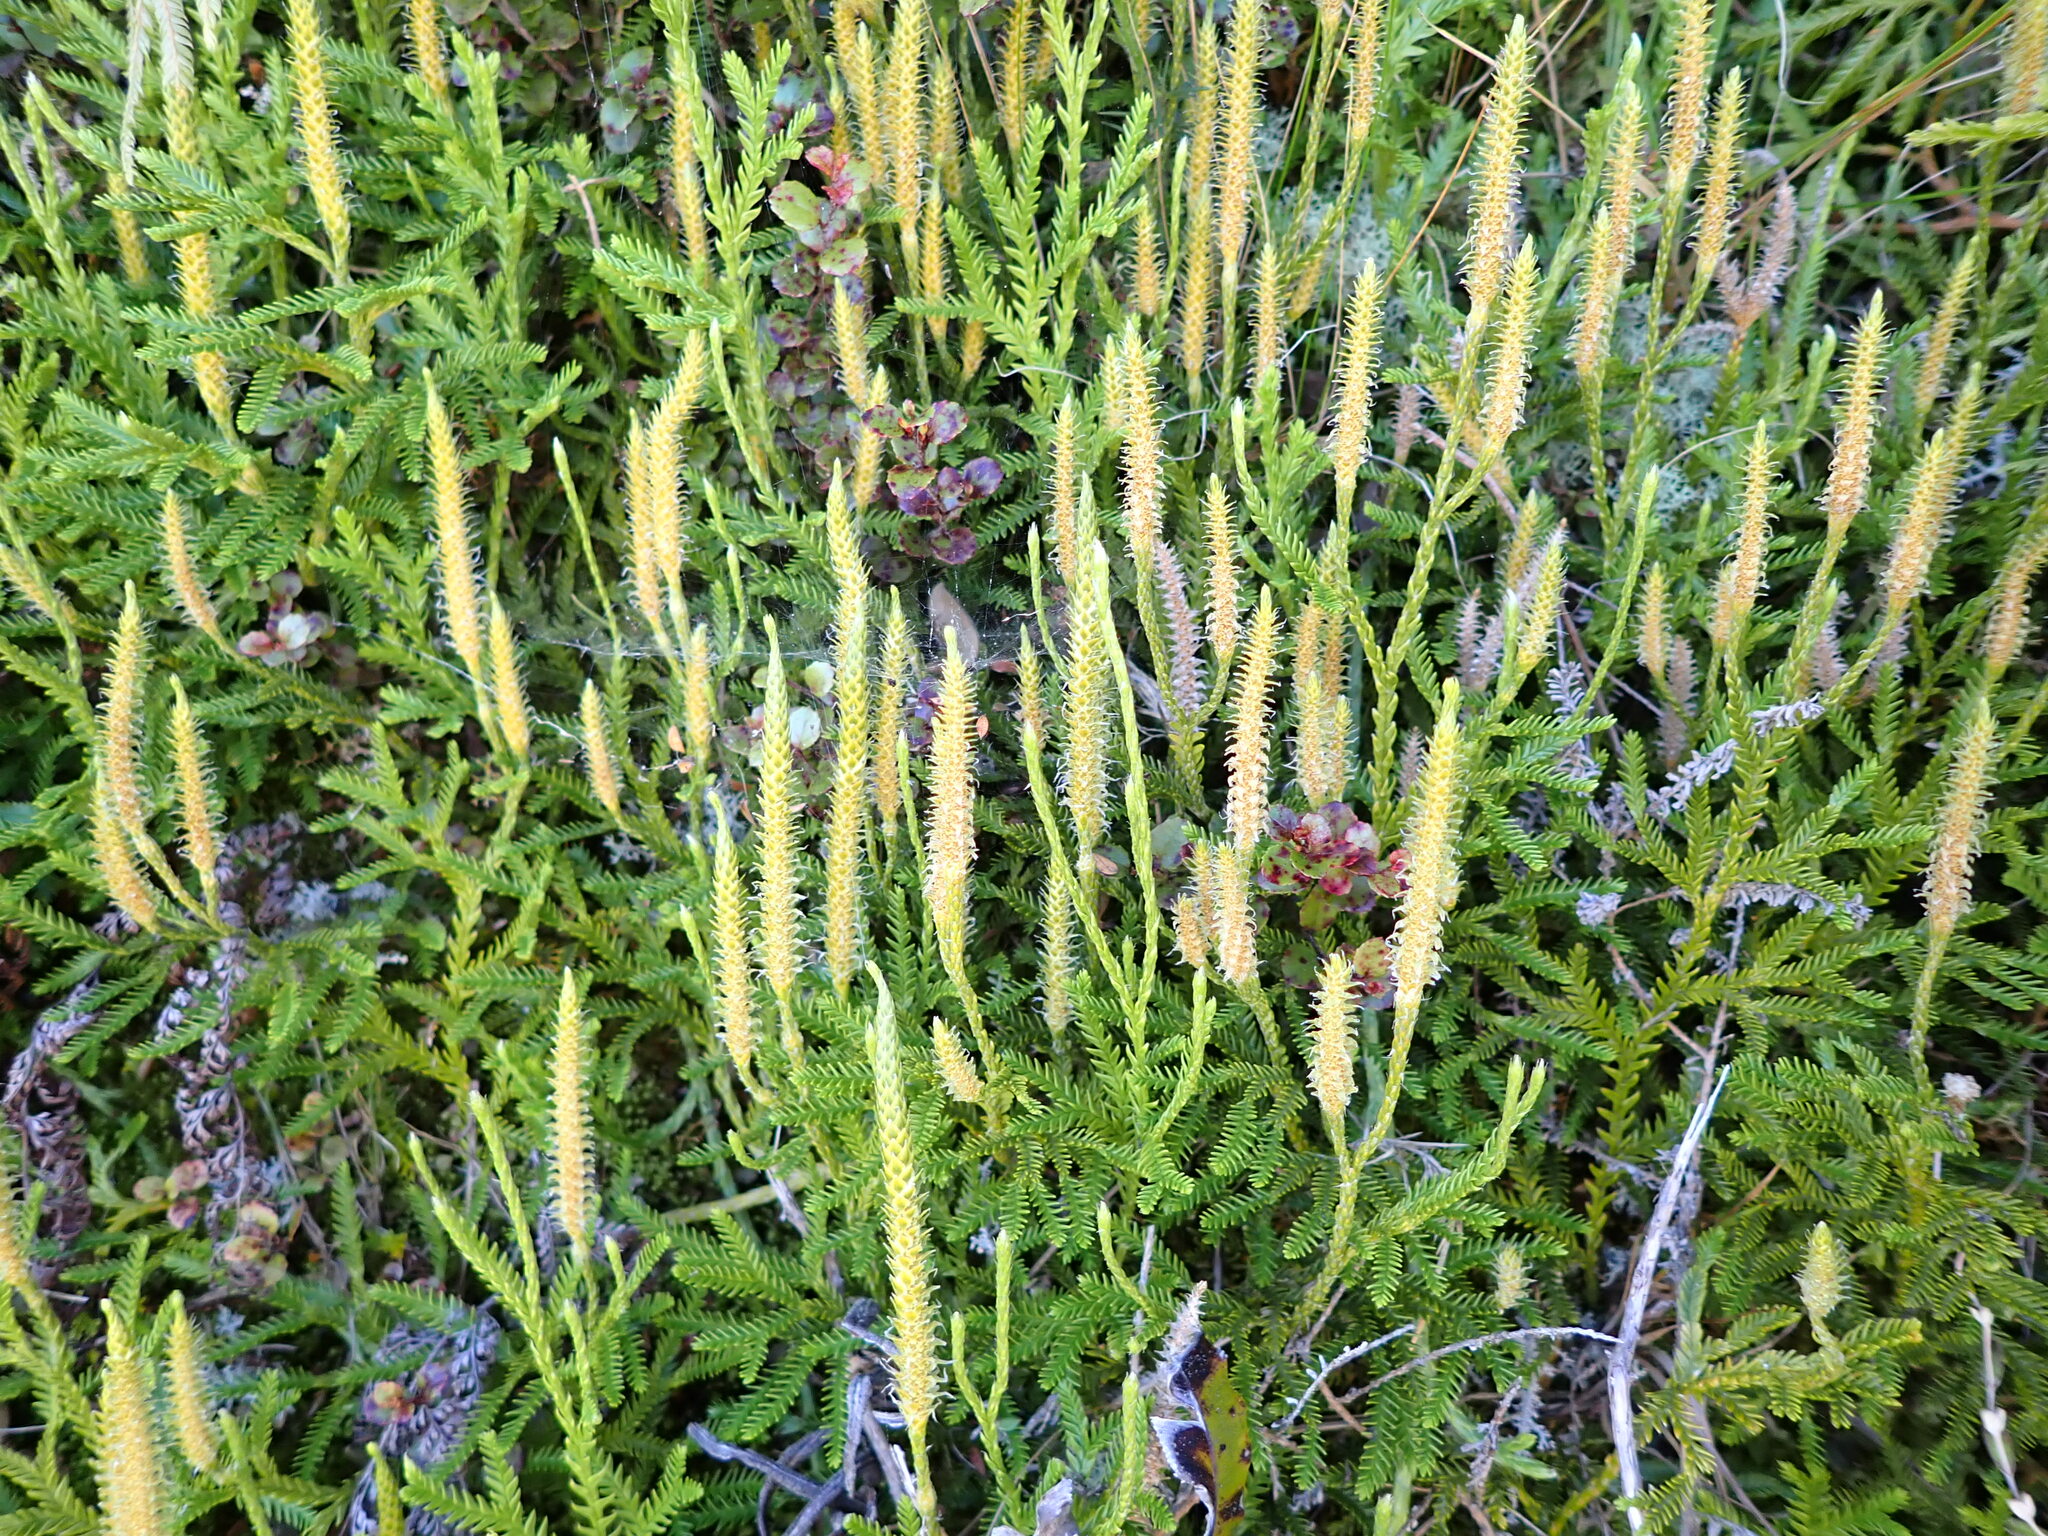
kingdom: Plantae
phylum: Tracheophyta
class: Lycopodiopsida
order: Lycopodiales
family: Lycopodiaceae
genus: Diphasium
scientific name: Diphasium scariosum
